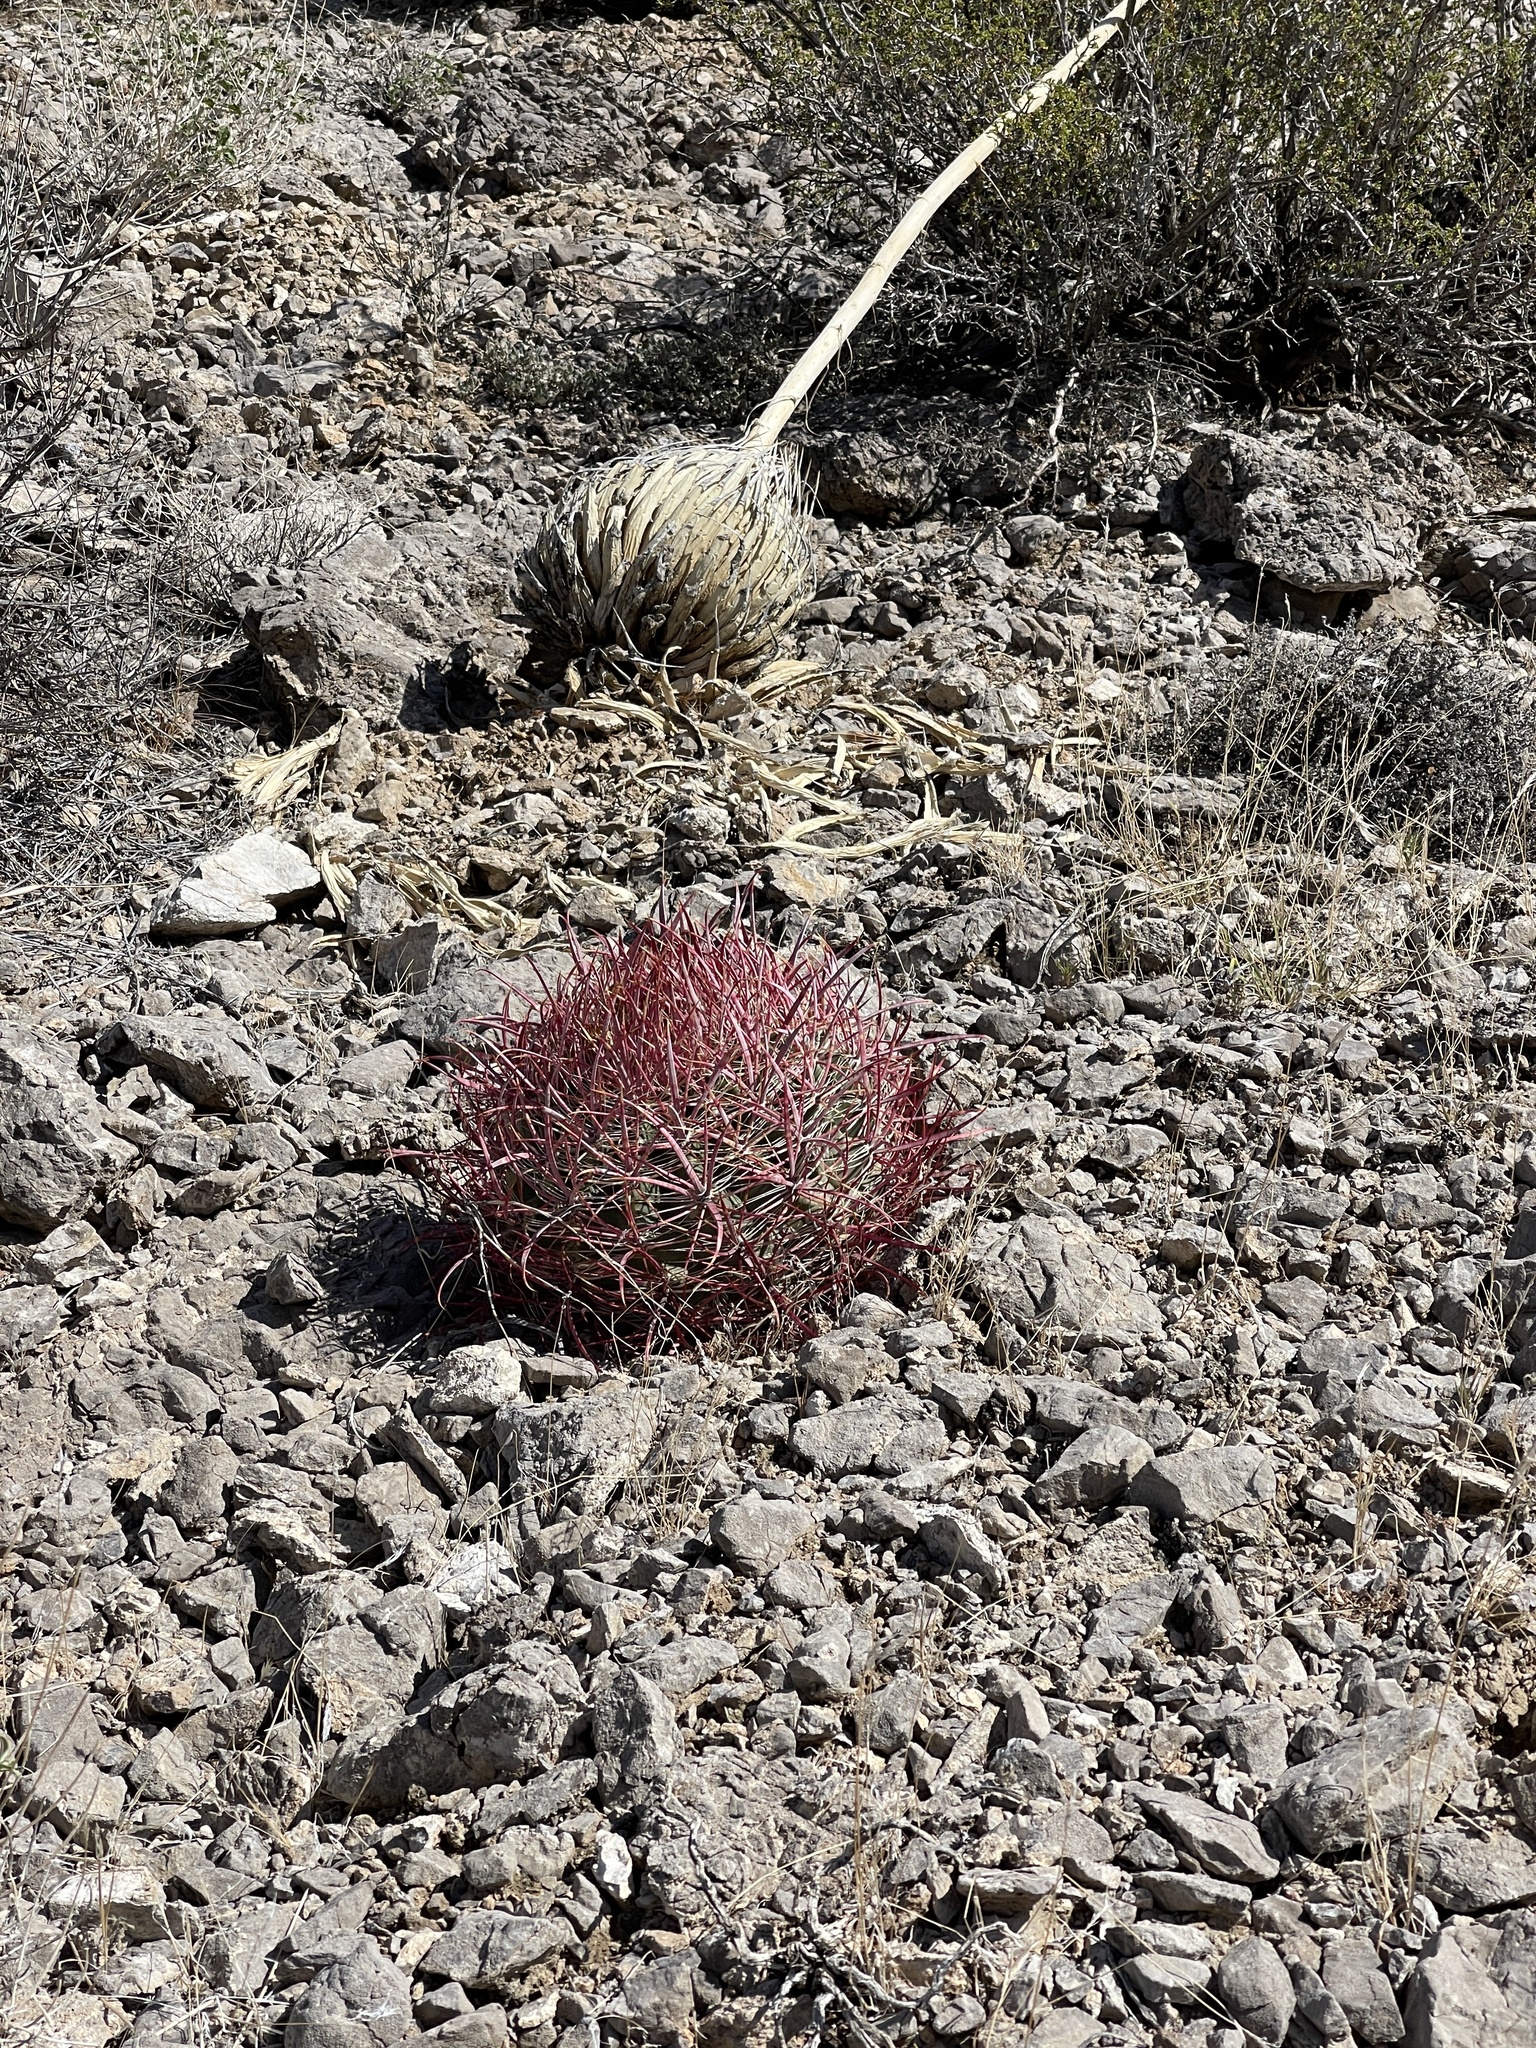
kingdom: Plantae
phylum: Tracheophyta
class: Magnoliopsida
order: Caryophyllales
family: Cactaceae
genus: Ferocactus
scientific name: Ferocactus cylindraceus
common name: California barrel cactus
